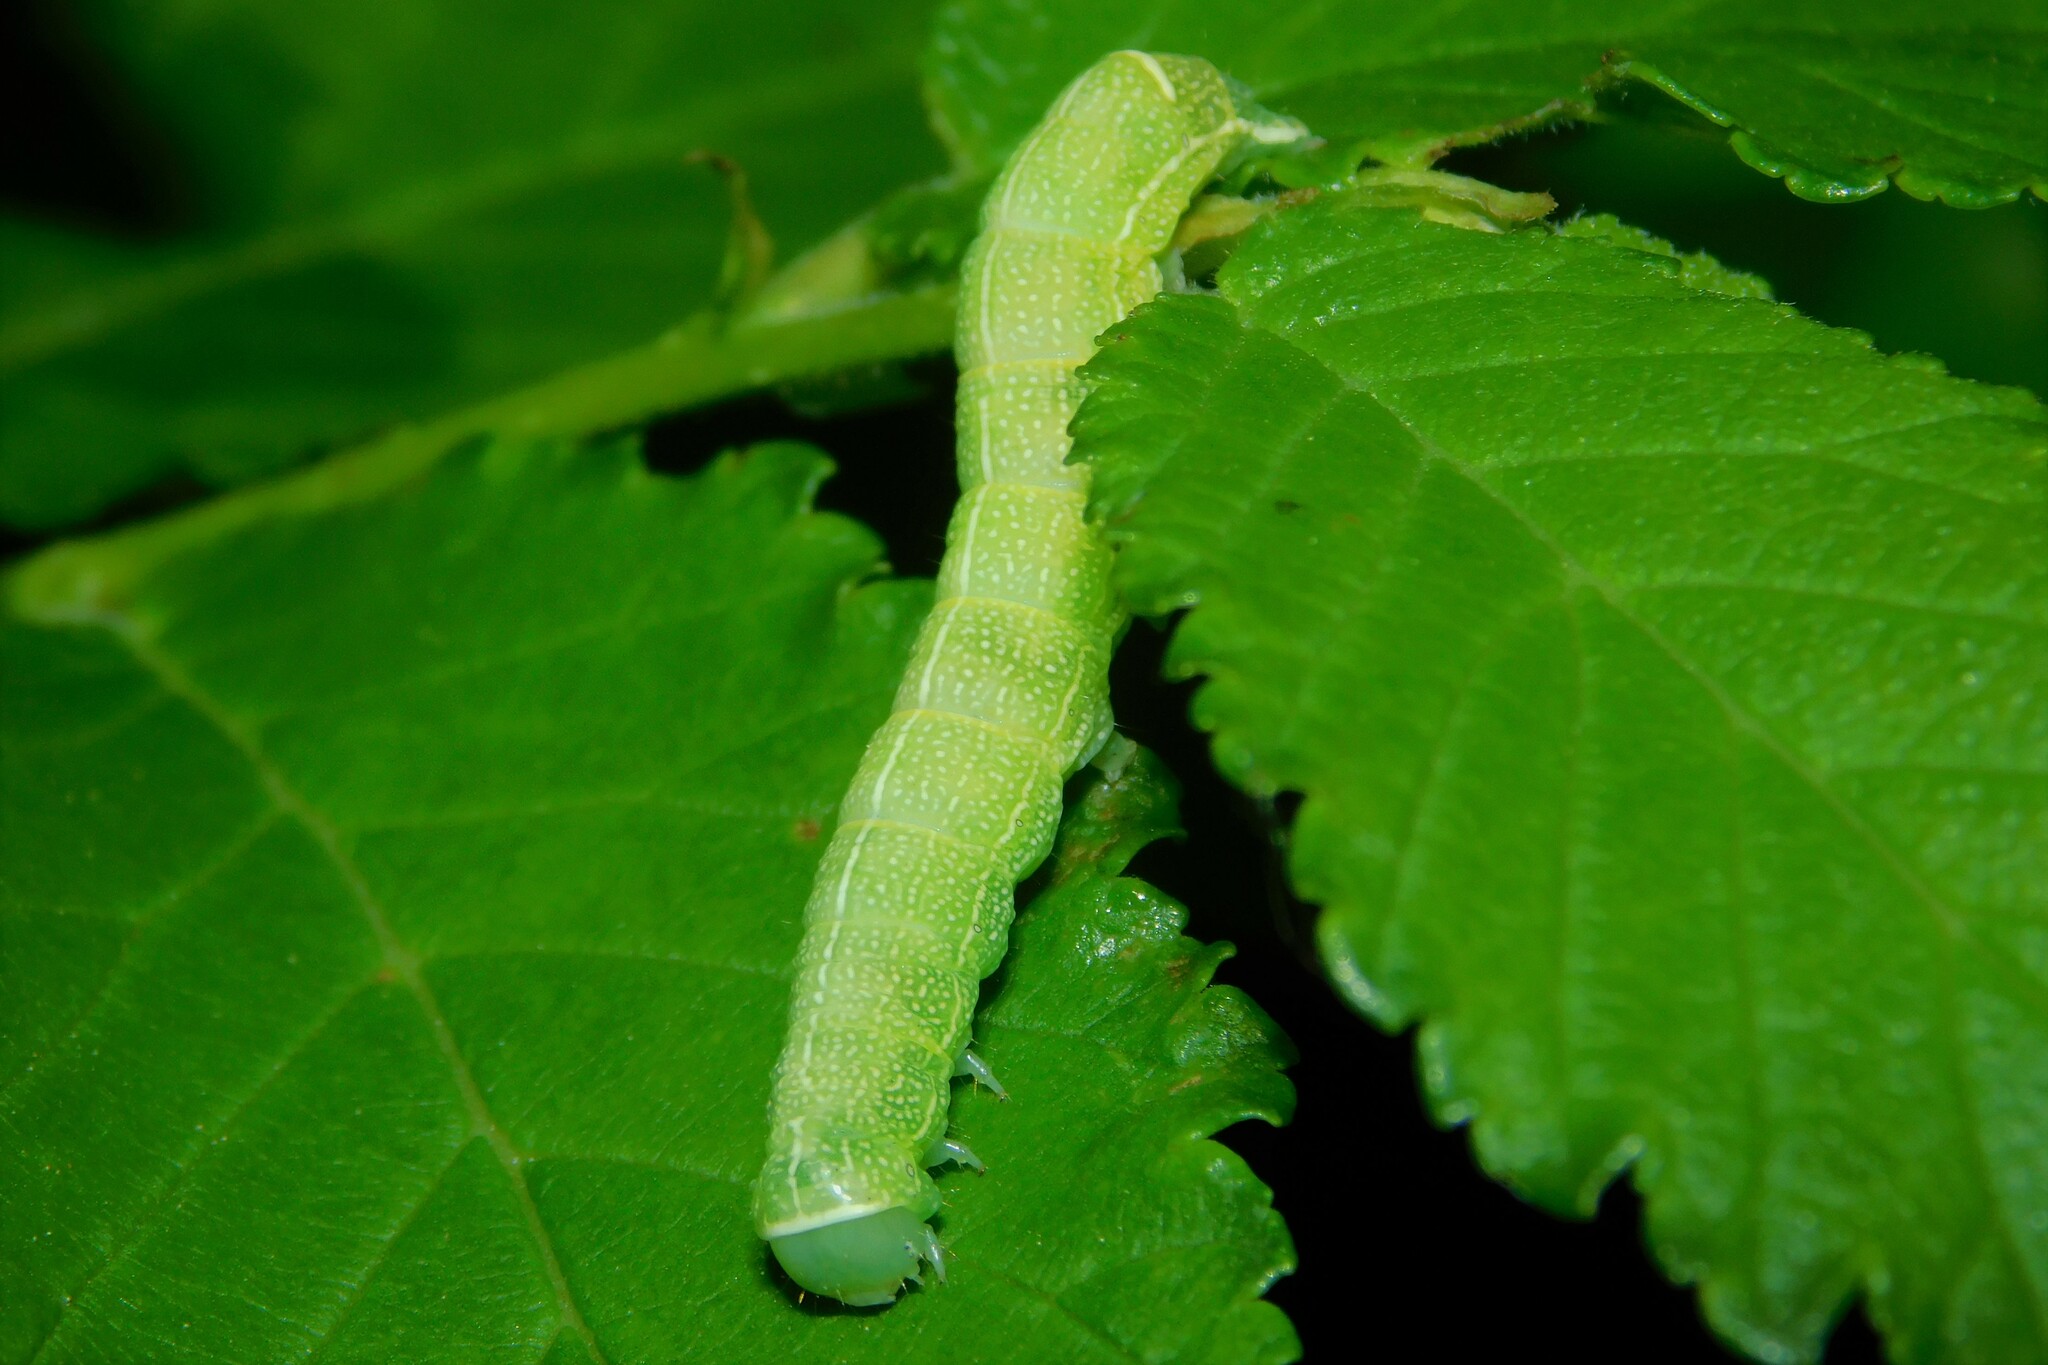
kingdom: Animalia
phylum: Arthropoda
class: Insecta
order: Lepidoptera
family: Noctuidae
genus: Orthosia
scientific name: Orthosia cerasi
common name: Common quaker
